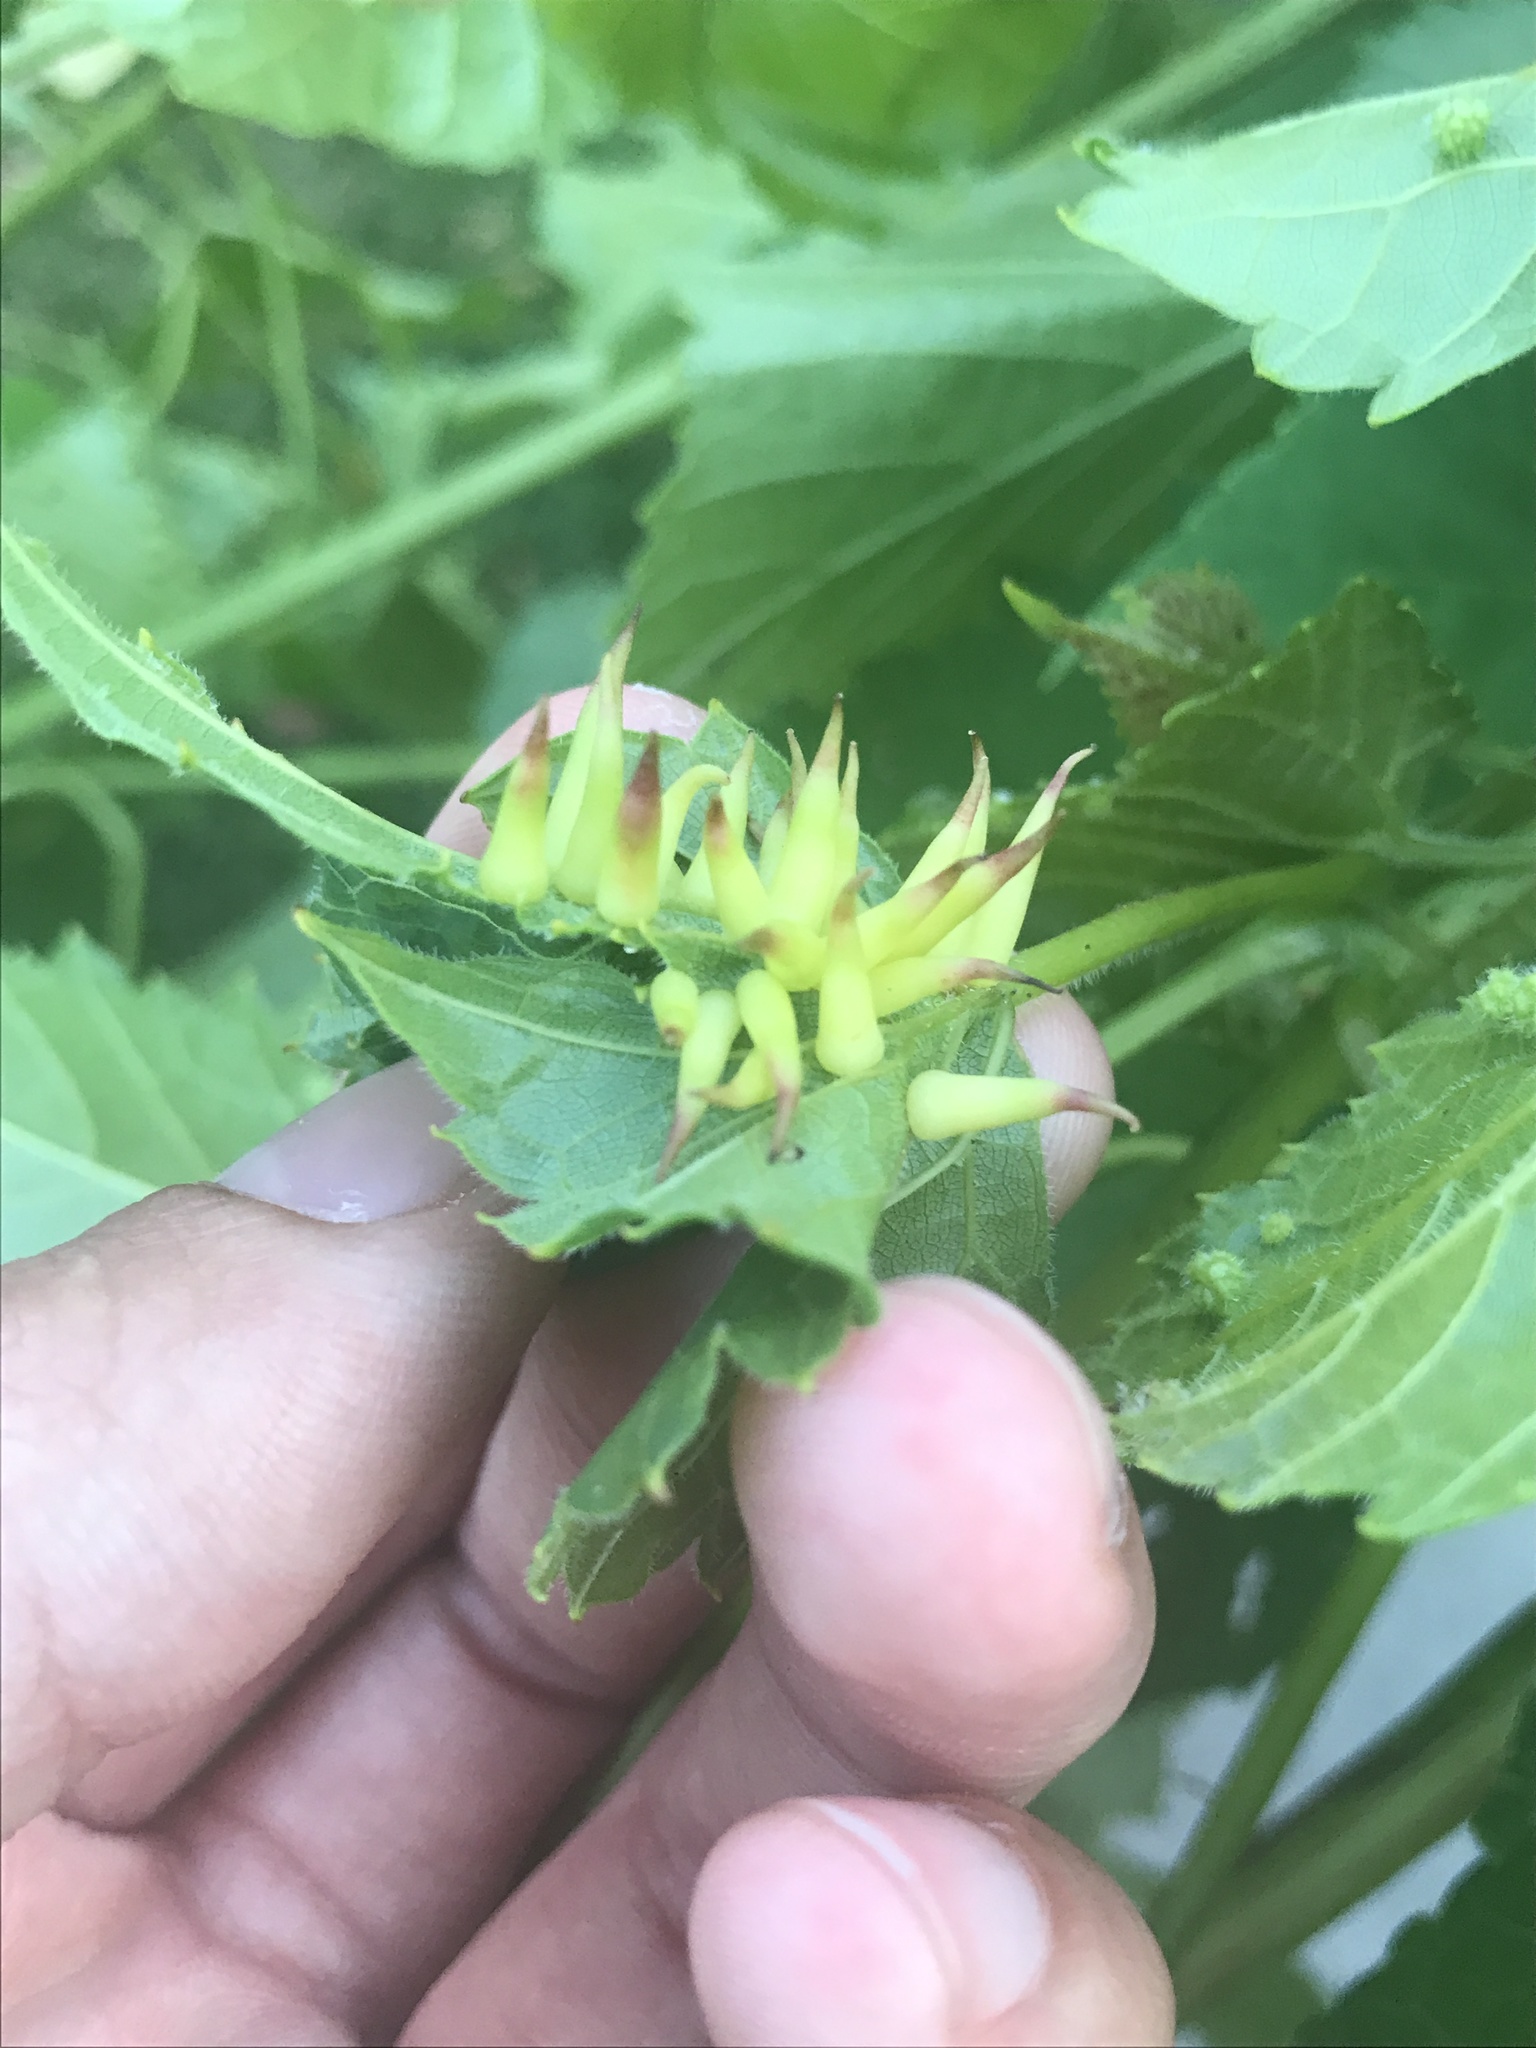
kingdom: Animalia
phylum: Arthropoda
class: Insecta
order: Diptera
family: Cecidomyiidae
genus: Ampelomyia
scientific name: Ampelomyia viticola
